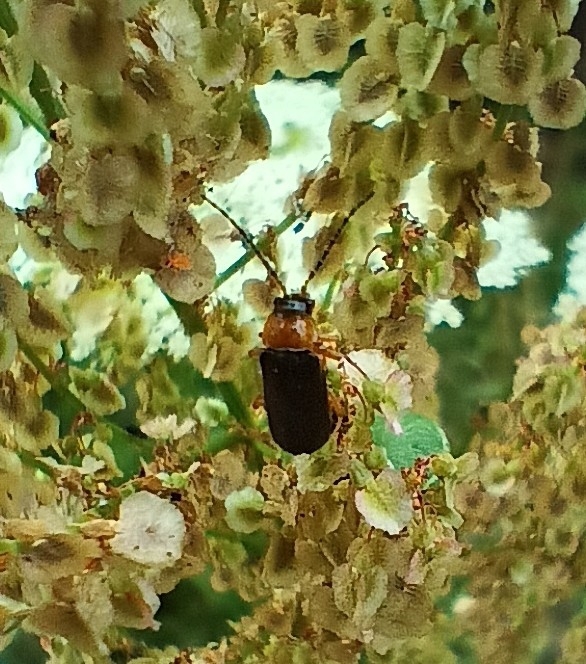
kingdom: Animalia
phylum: Arthropoda
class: Insecta
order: Coleoptera
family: Cantharidae
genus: Cantharis
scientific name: Cantharis flavilabris
